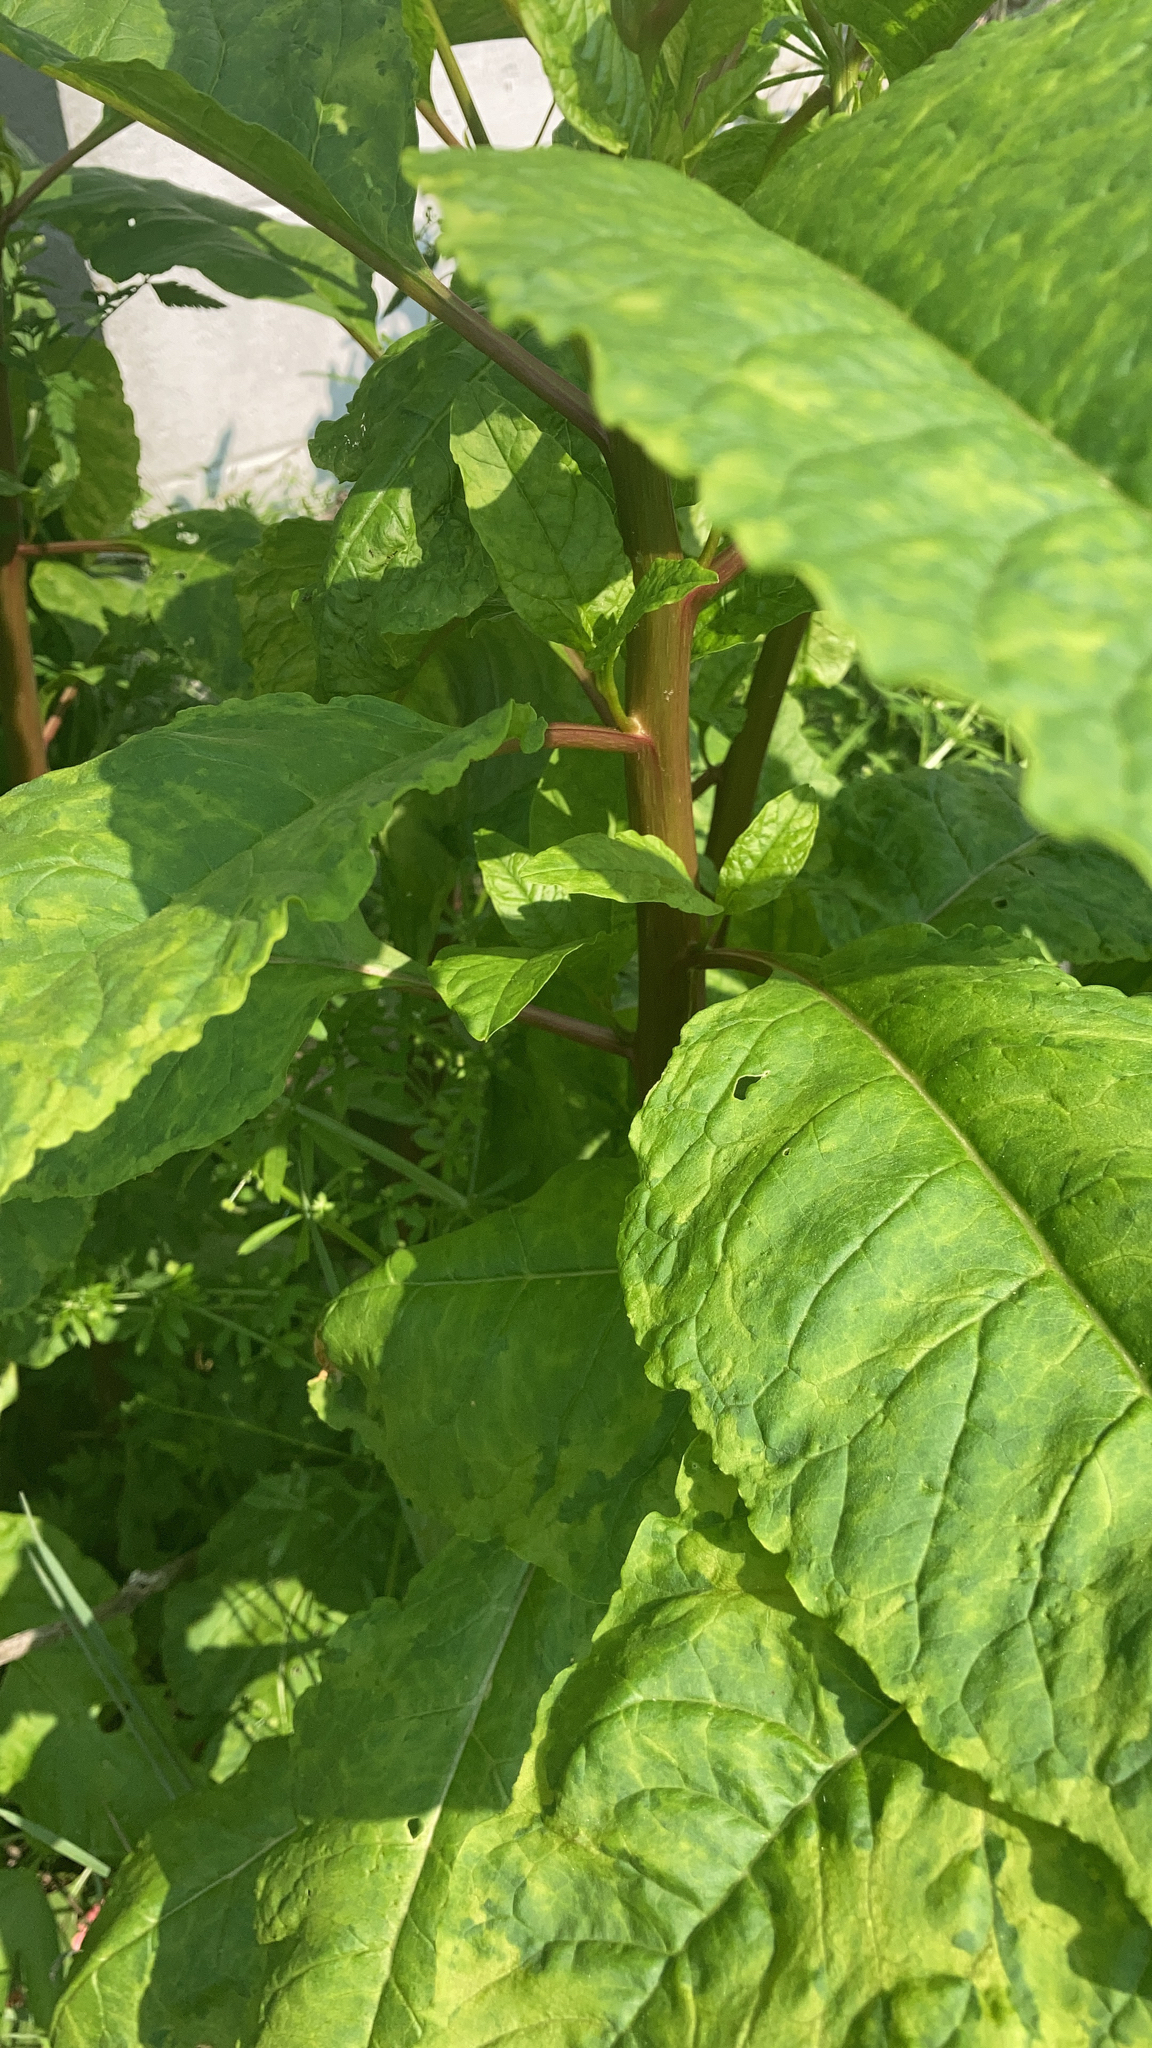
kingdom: Plantae
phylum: Tracheophyta
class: Magnoliopsida
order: Caryophyllales
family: Phytolaccaceae
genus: Phytolacca
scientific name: Phytolacca americana
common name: American pokeweed
